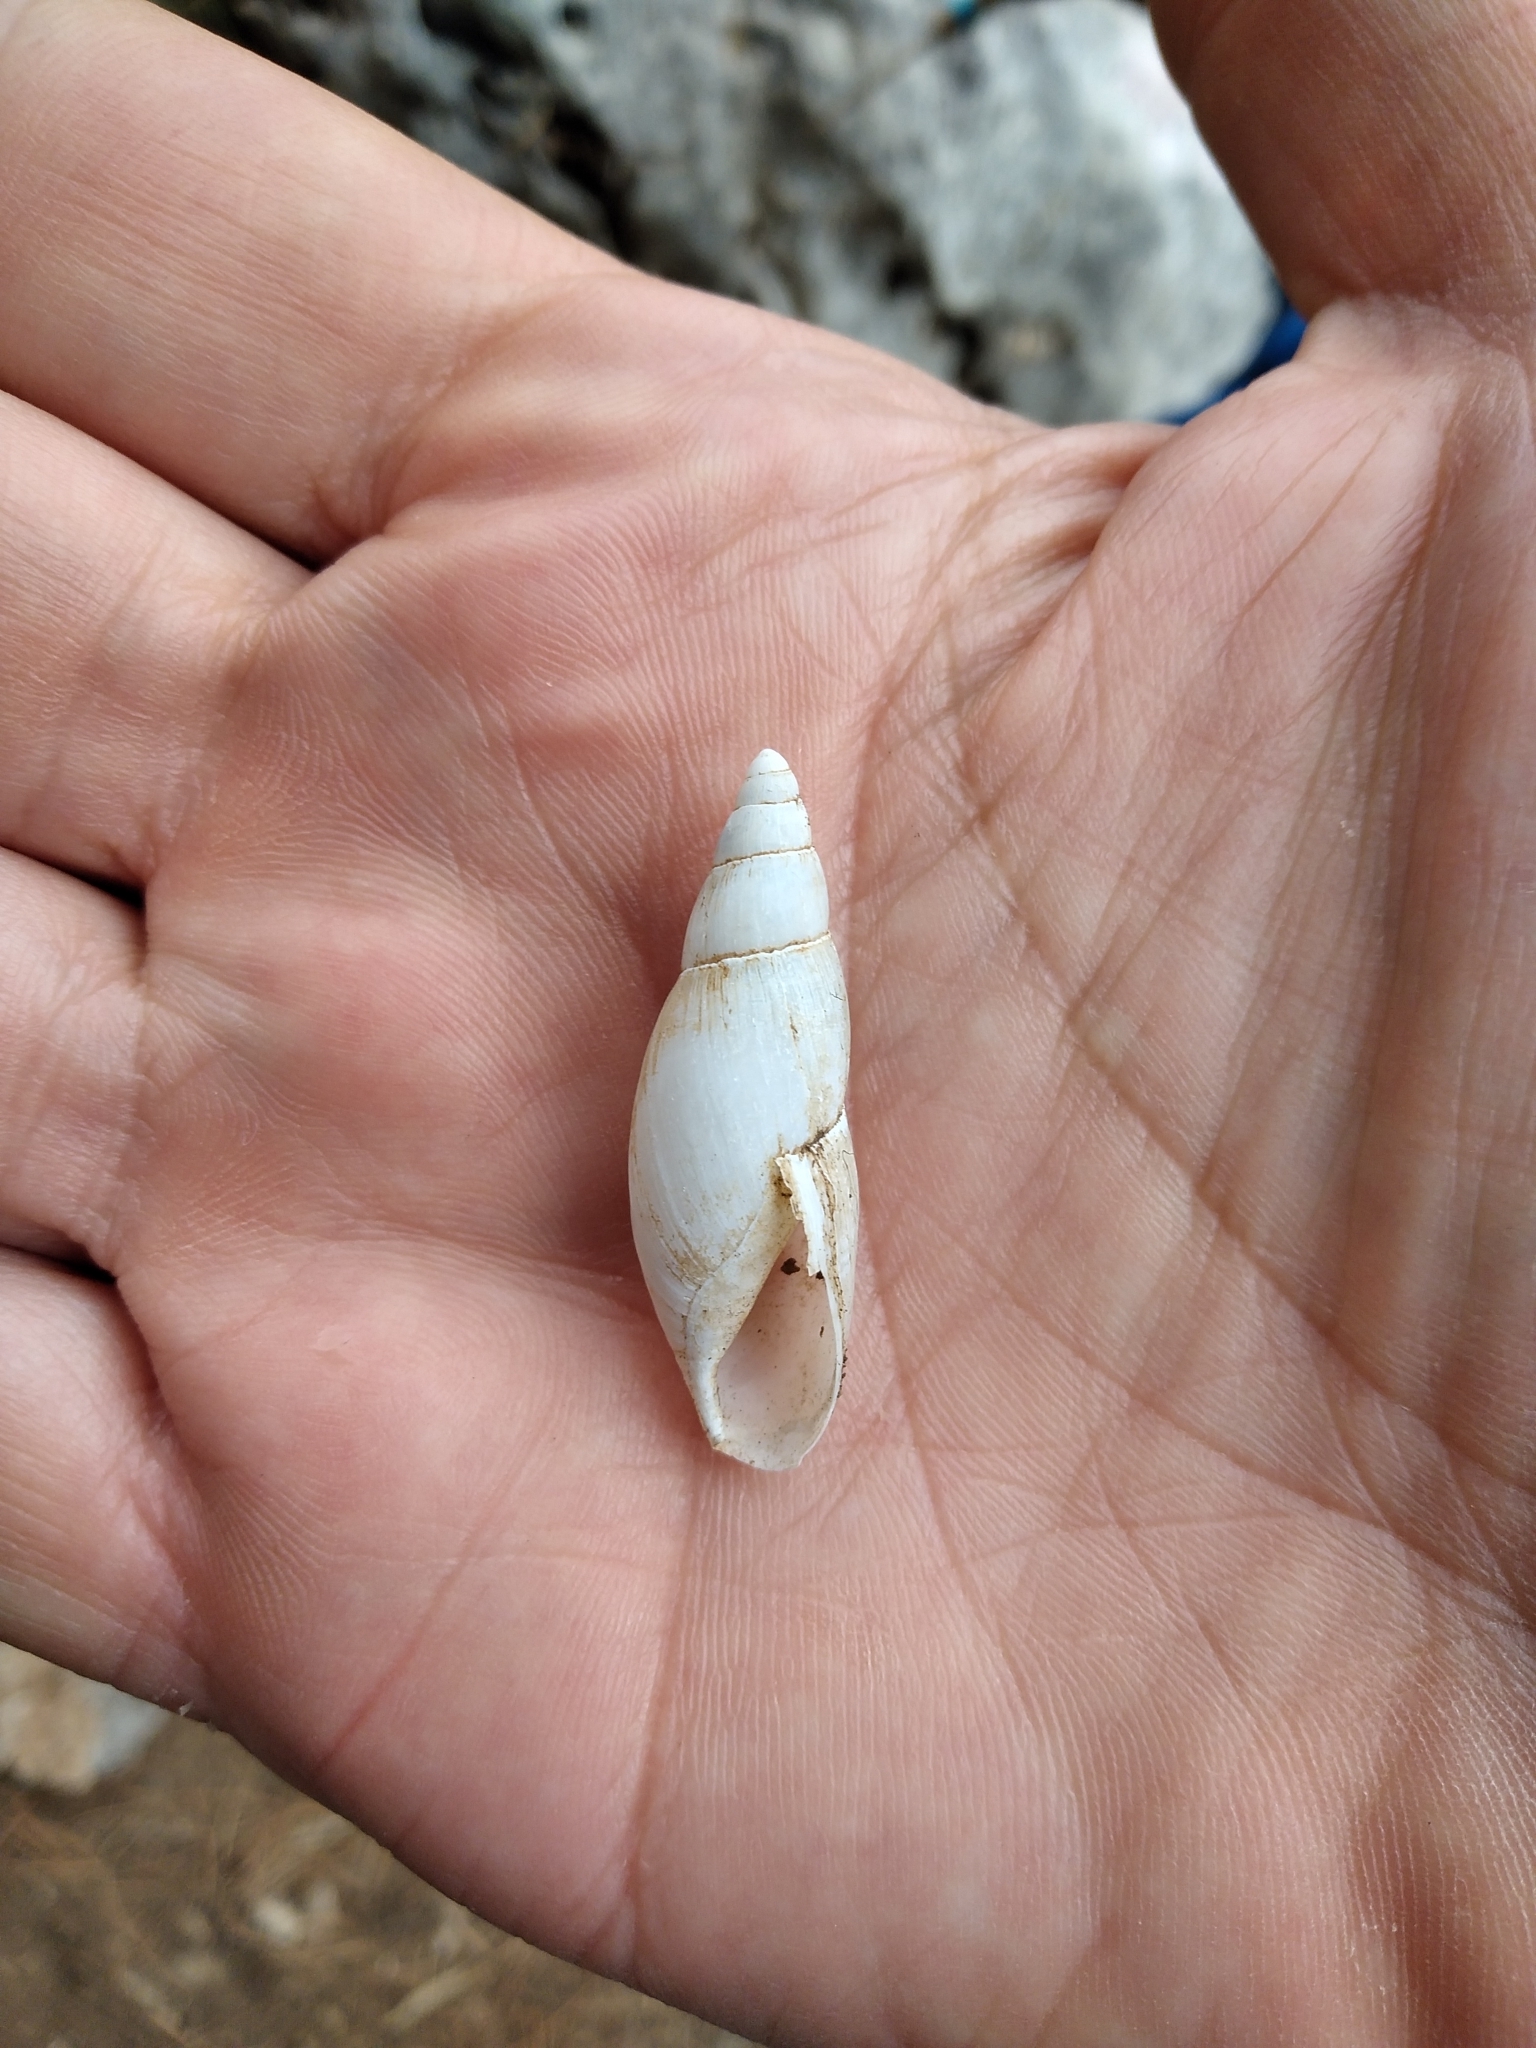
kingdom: Animalia
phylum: Mollusca
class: Gastropoda
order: Stylommatophora
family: Spiraxidae
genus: Poiretia
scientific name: Poiretia dilatata
